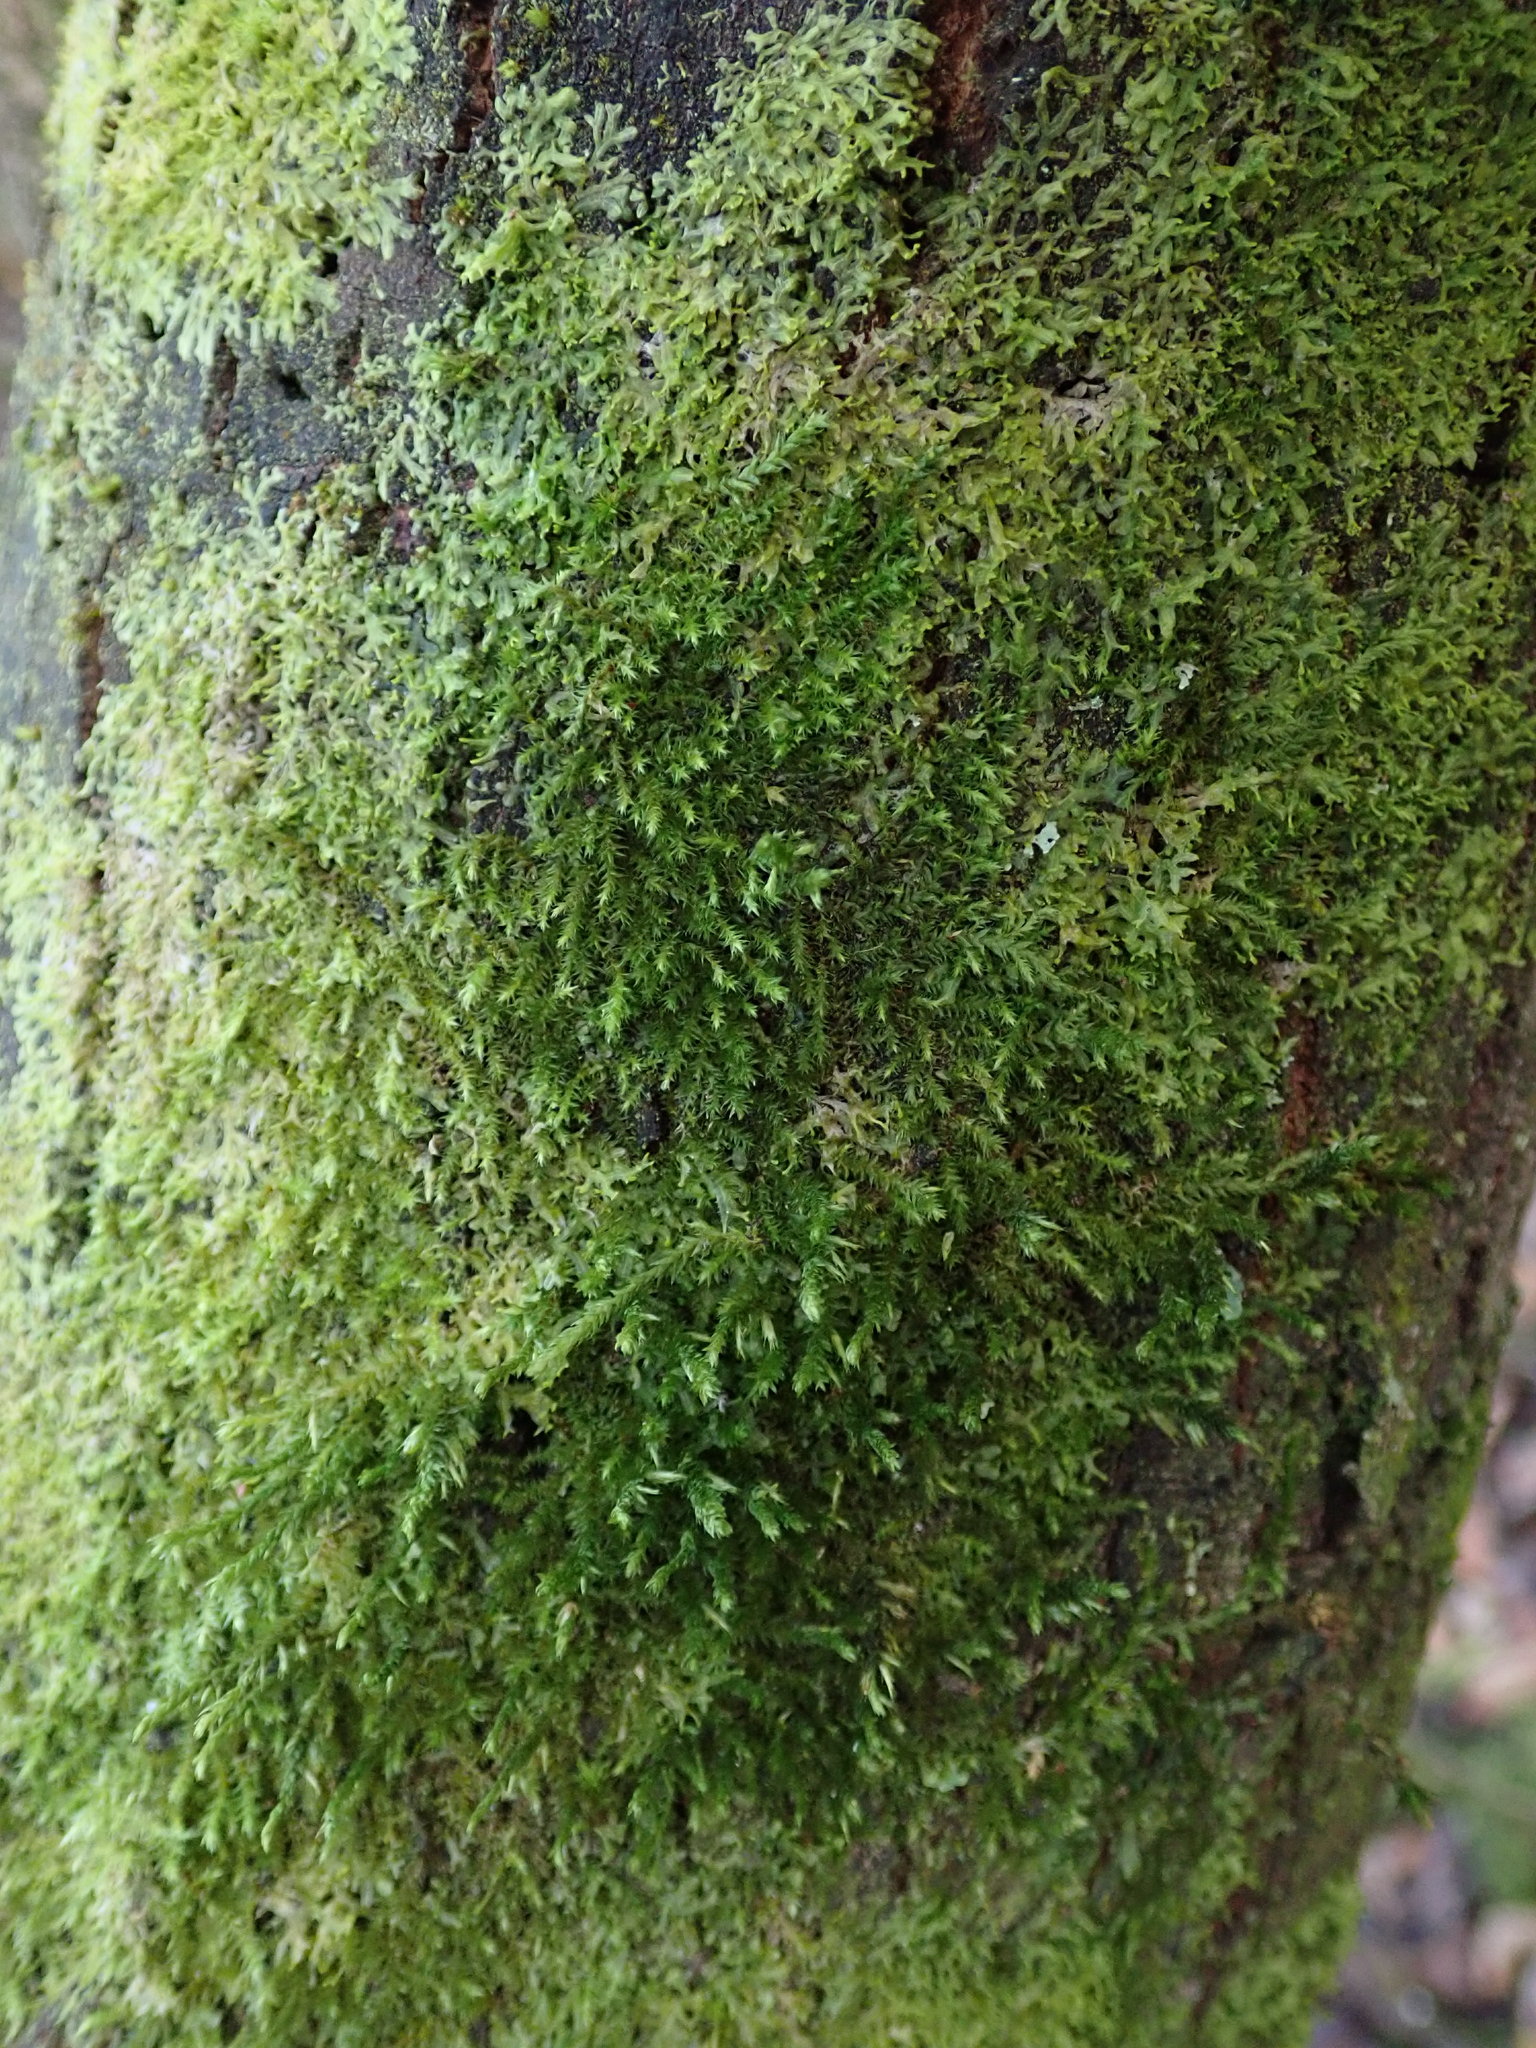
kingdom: Plantae
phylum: Bryophyta
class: Bryopsida
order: Hypnales
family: Cryphaeaceae
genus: Cryphaea
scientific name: Cryphaea heteromalla
